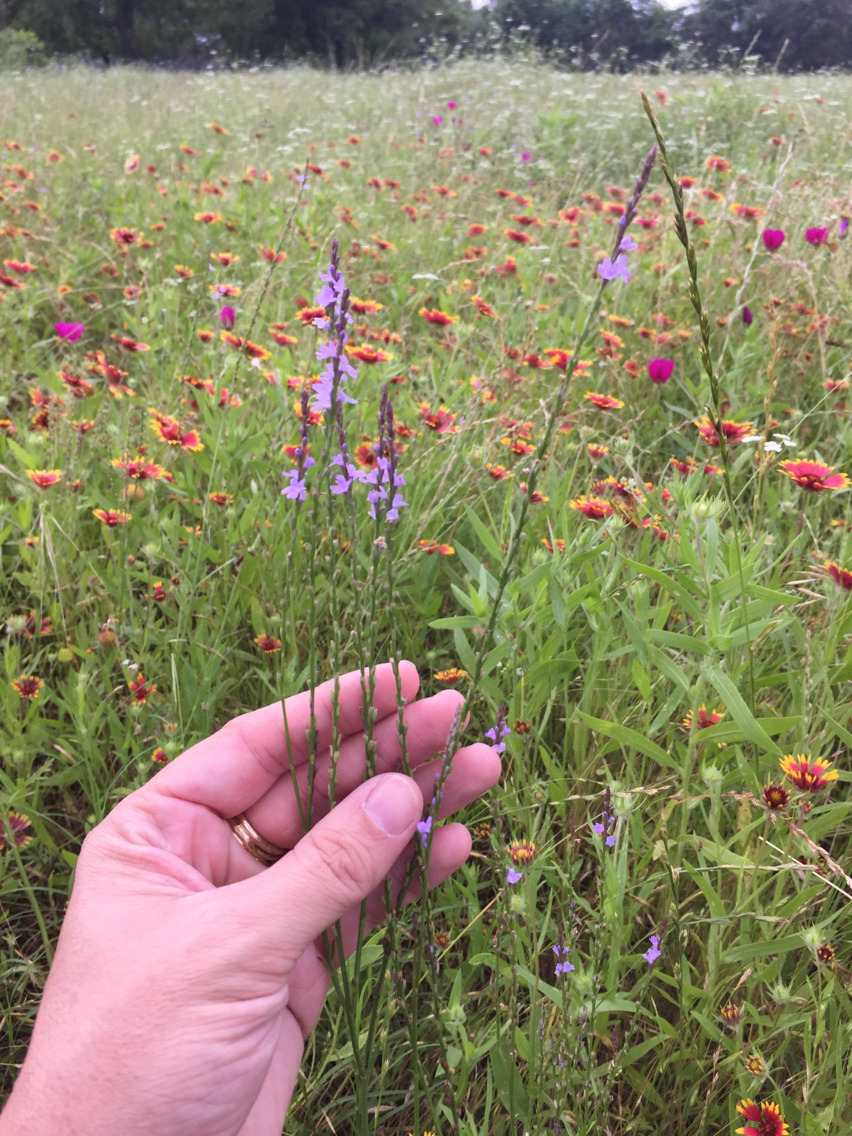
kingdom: Plantae
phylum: Tracheophyta
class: Magnoliopsida
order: Lamiales
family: Verbenaceae
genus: Verbena
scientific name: Verbena halei
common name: Texas vervain
